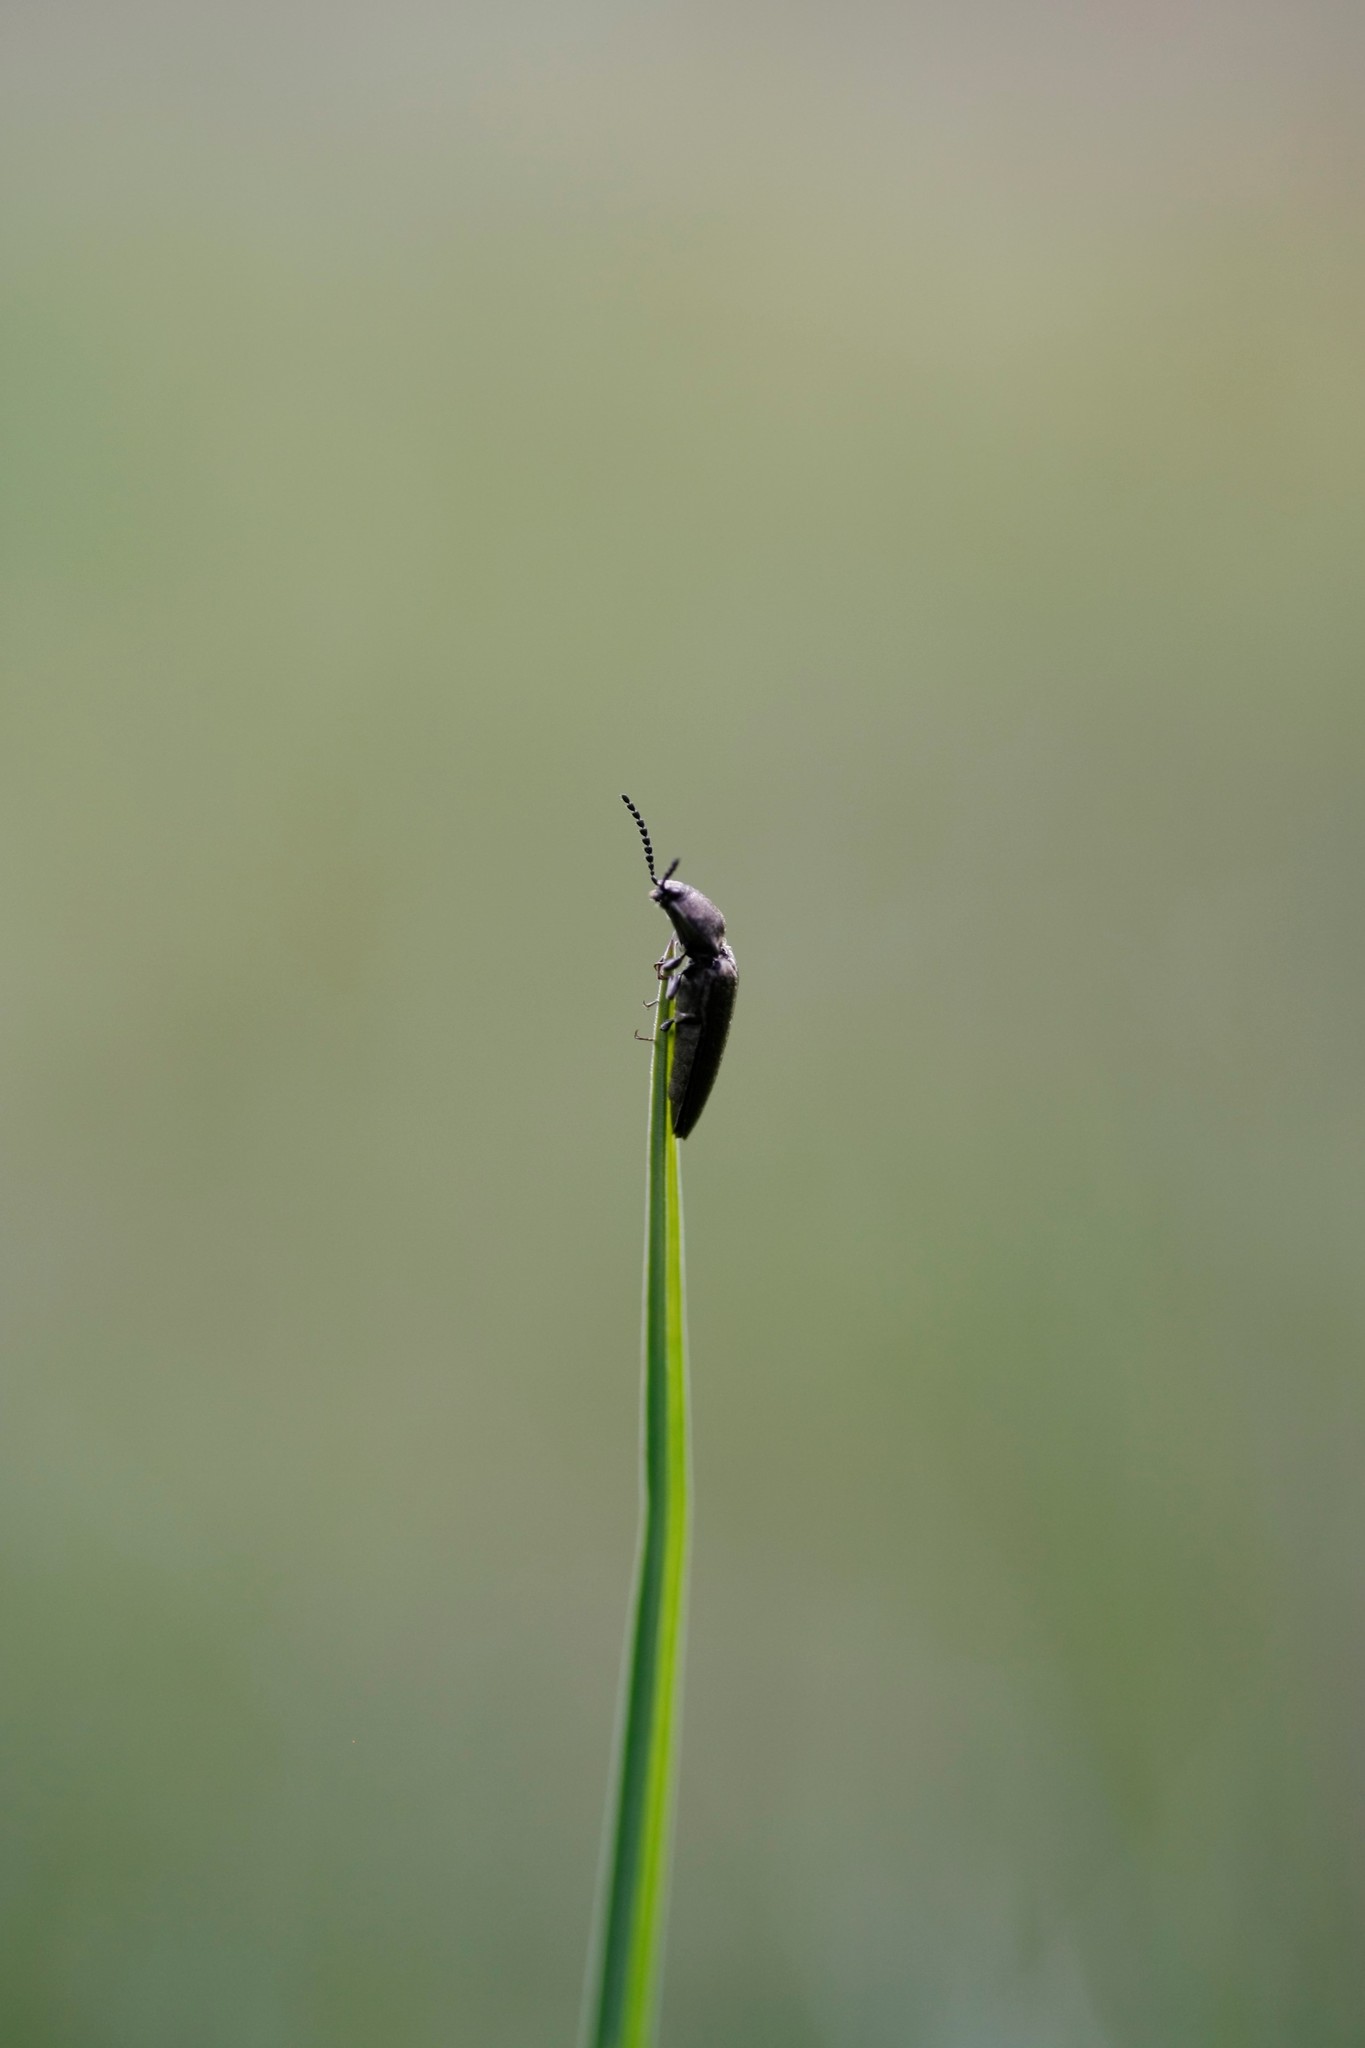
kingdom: Animalia
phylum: Arthropoda
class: Insecta
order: Coleoptera
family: Elateridae
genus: Cidnopus
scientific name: Cidnopus pilosus
